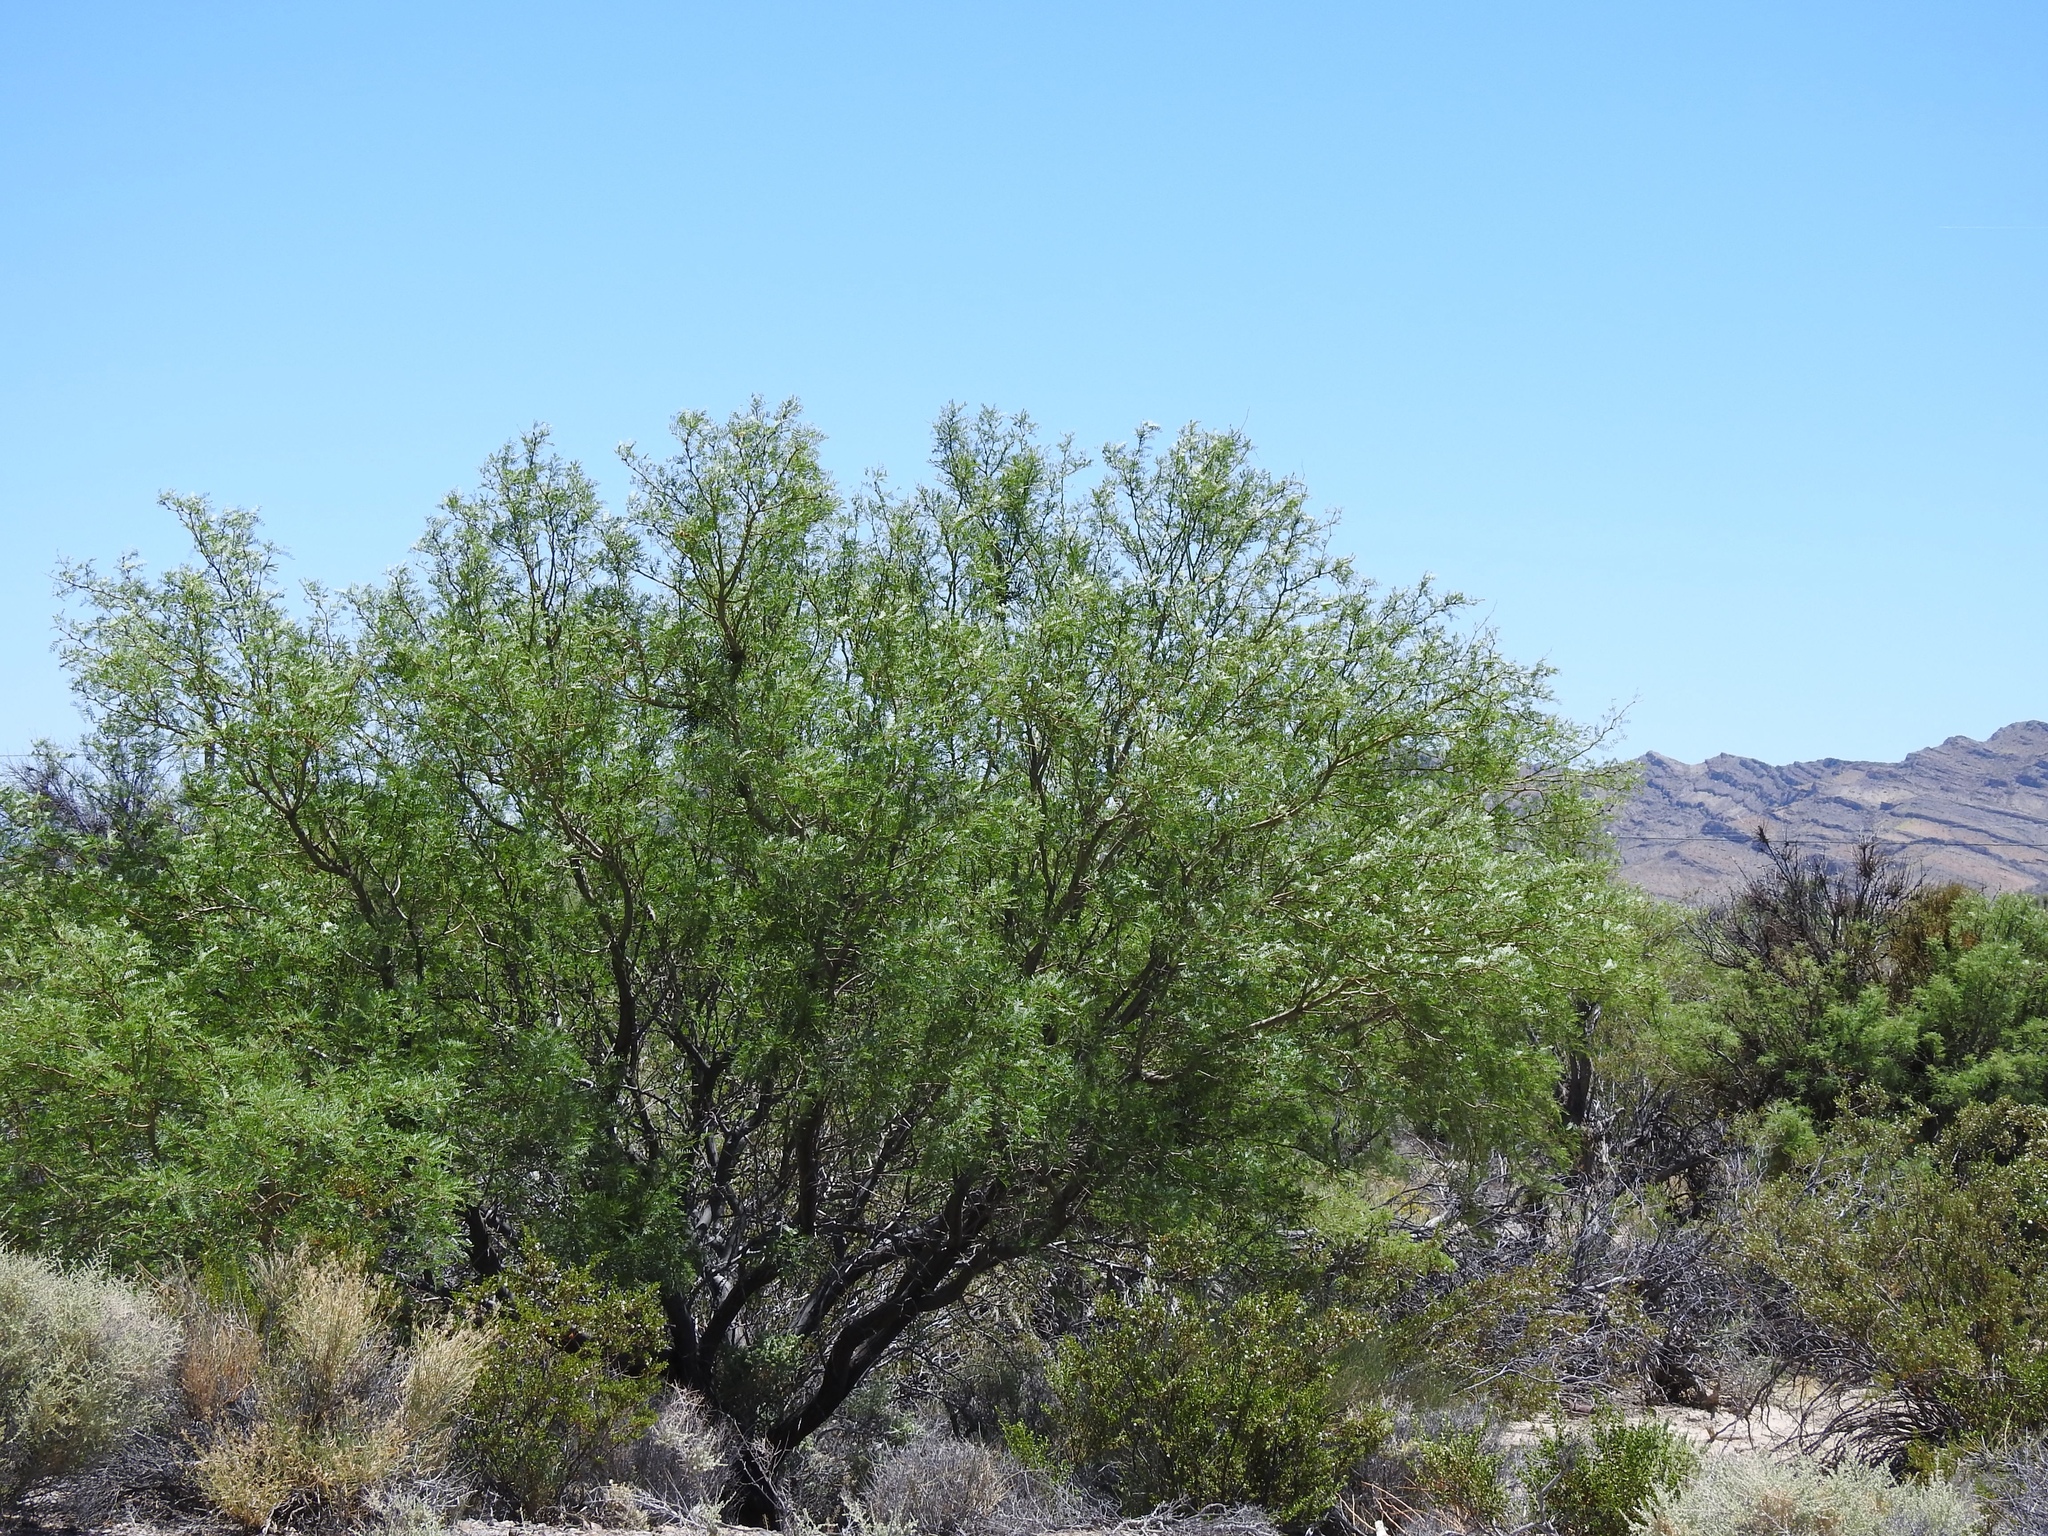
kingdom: Plantae
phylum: Tracheophyta
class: Magnoliopsida
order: Fabales
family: Fabaceae
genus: Prosopis
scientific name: Prosopis pubescens
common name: Screw-bean
